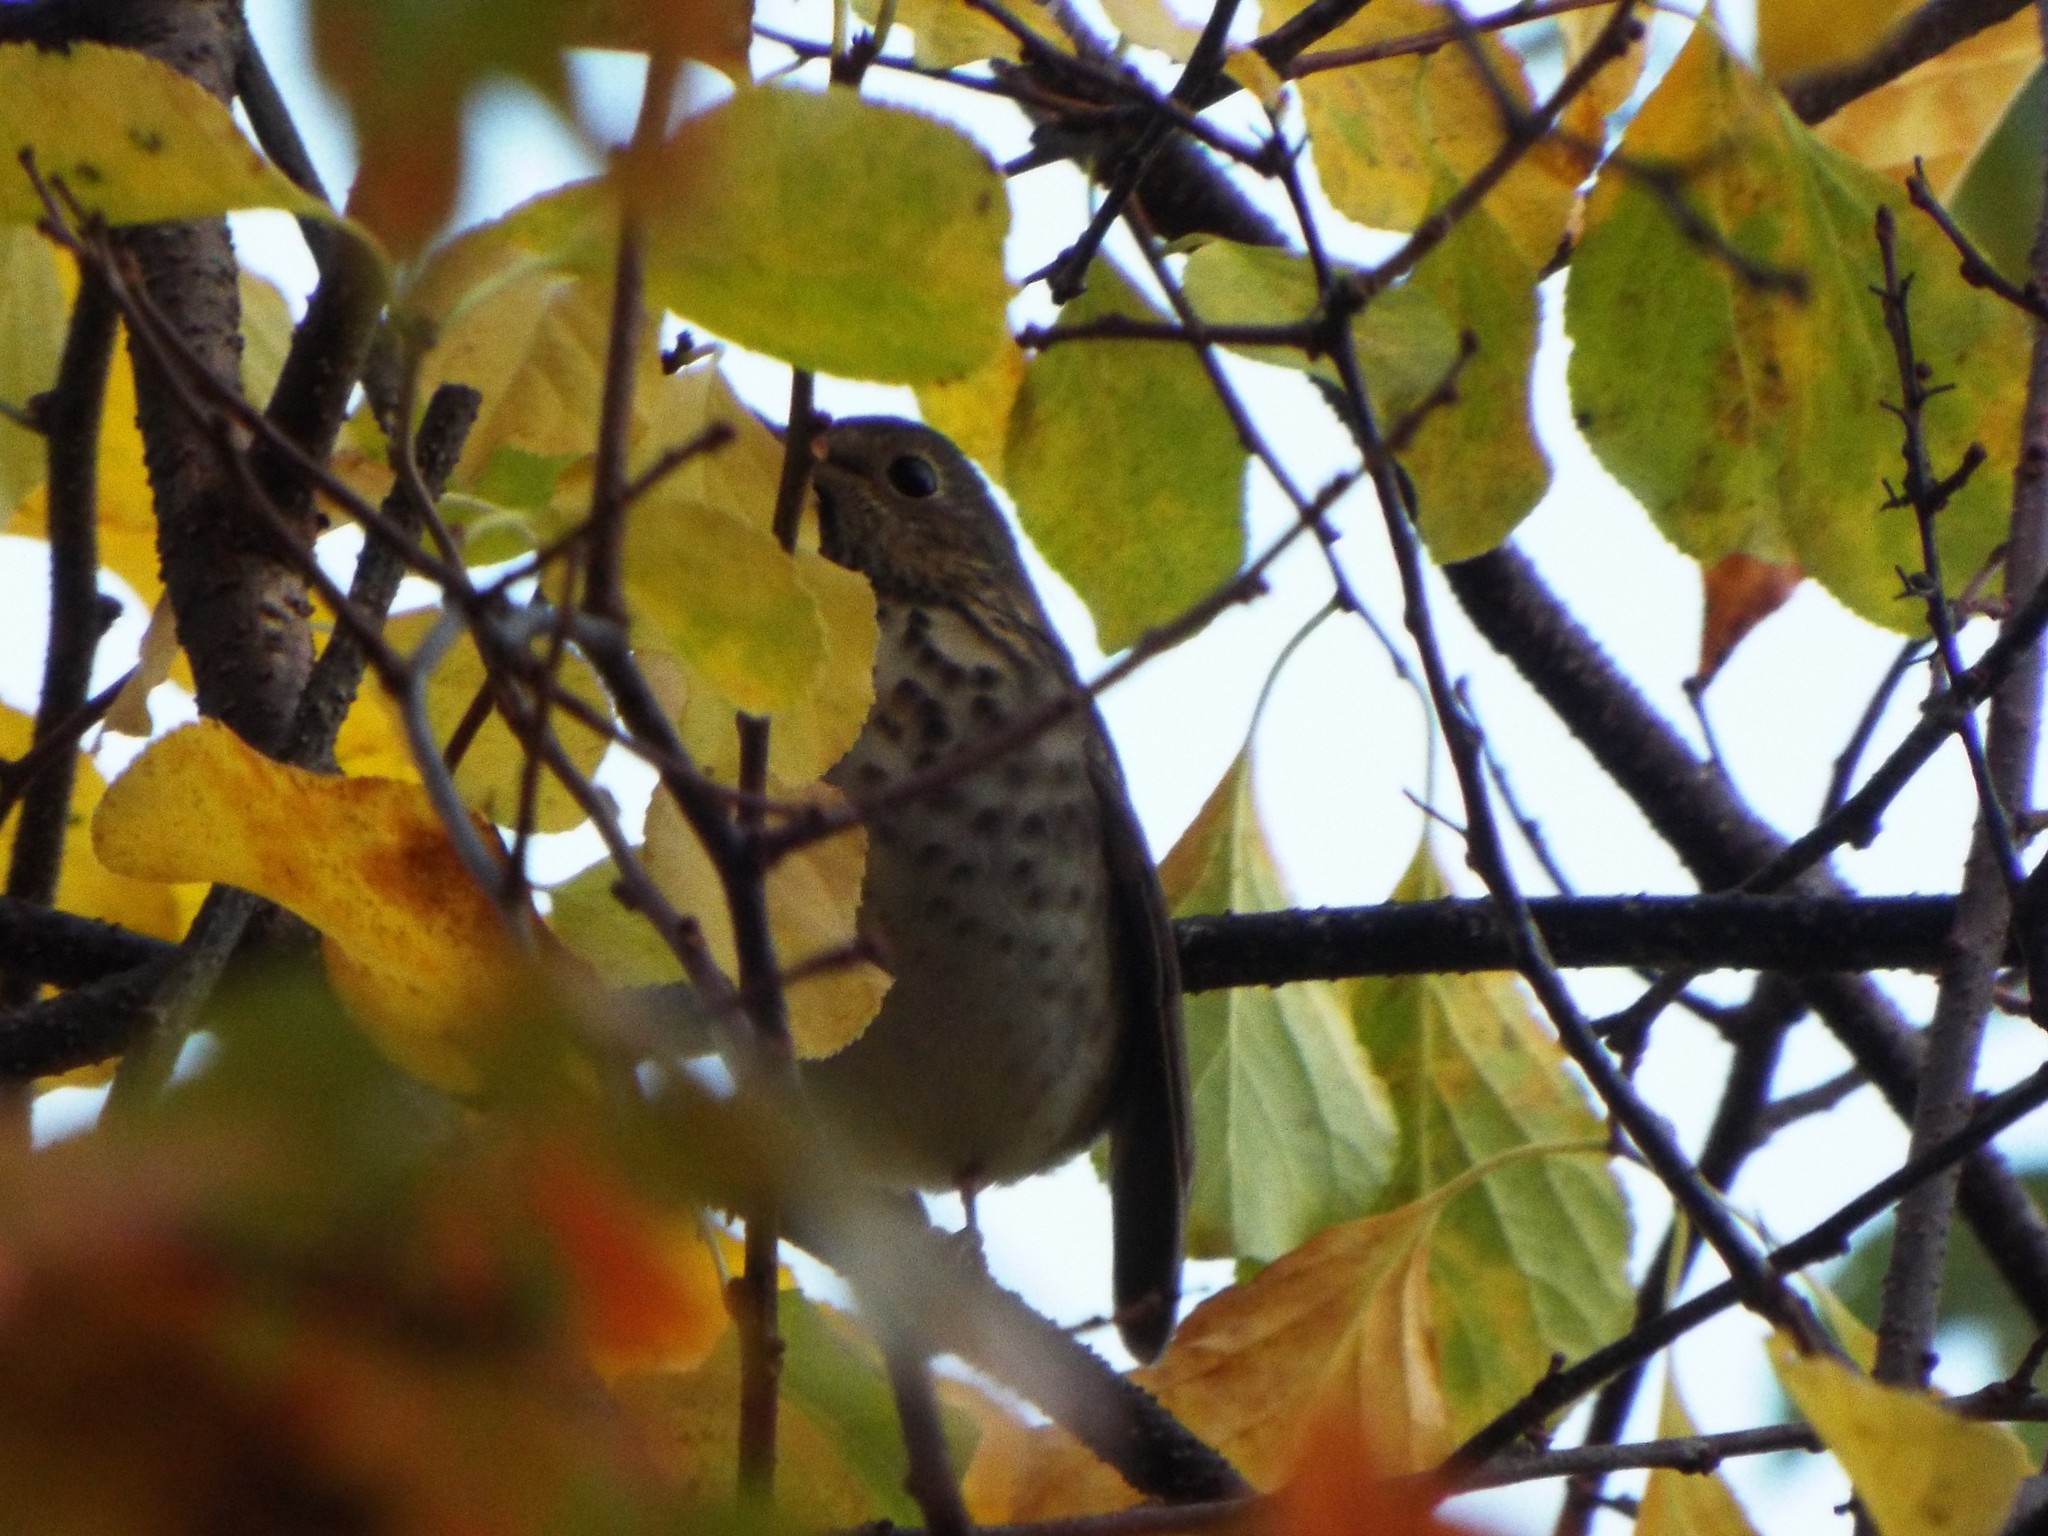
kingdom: Animalia
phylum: Chordata
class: Aves
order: Passeriformes
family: Turdidae
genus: Catharus
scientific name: Catharus guttatus
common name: Hermit thrush
